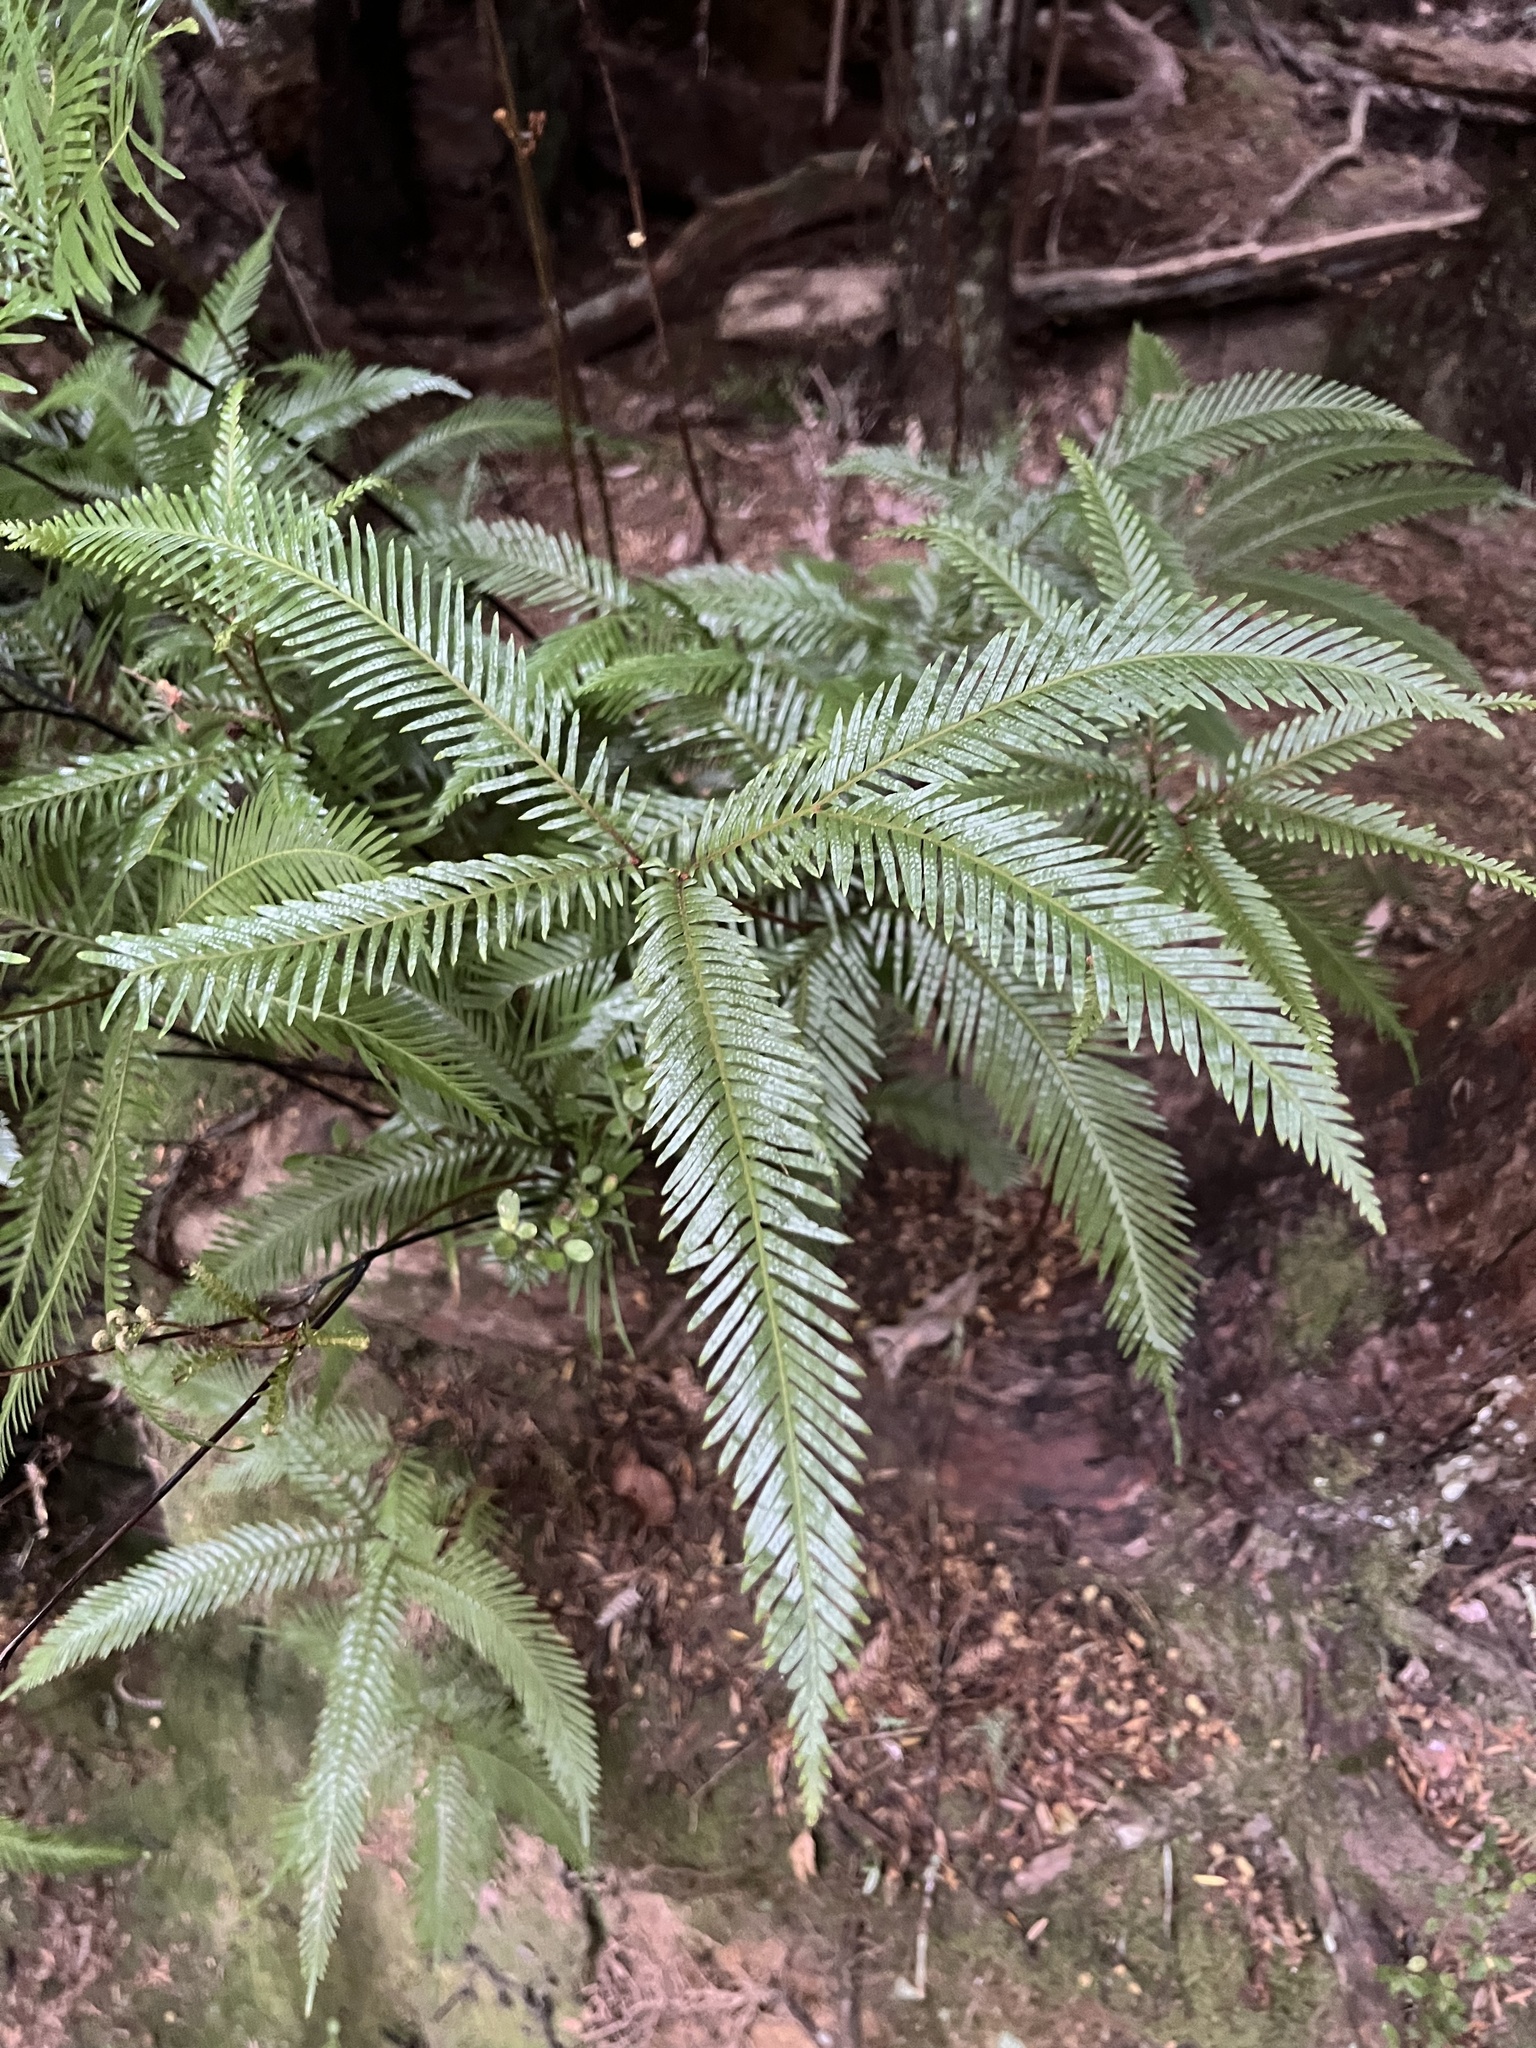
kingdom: Plantae
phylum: Tracheophyta
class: Polypodiopsida
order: Gleicheniales
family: Gleicheniaceae
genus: Sticherus
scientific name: Sticherus flabellatus
